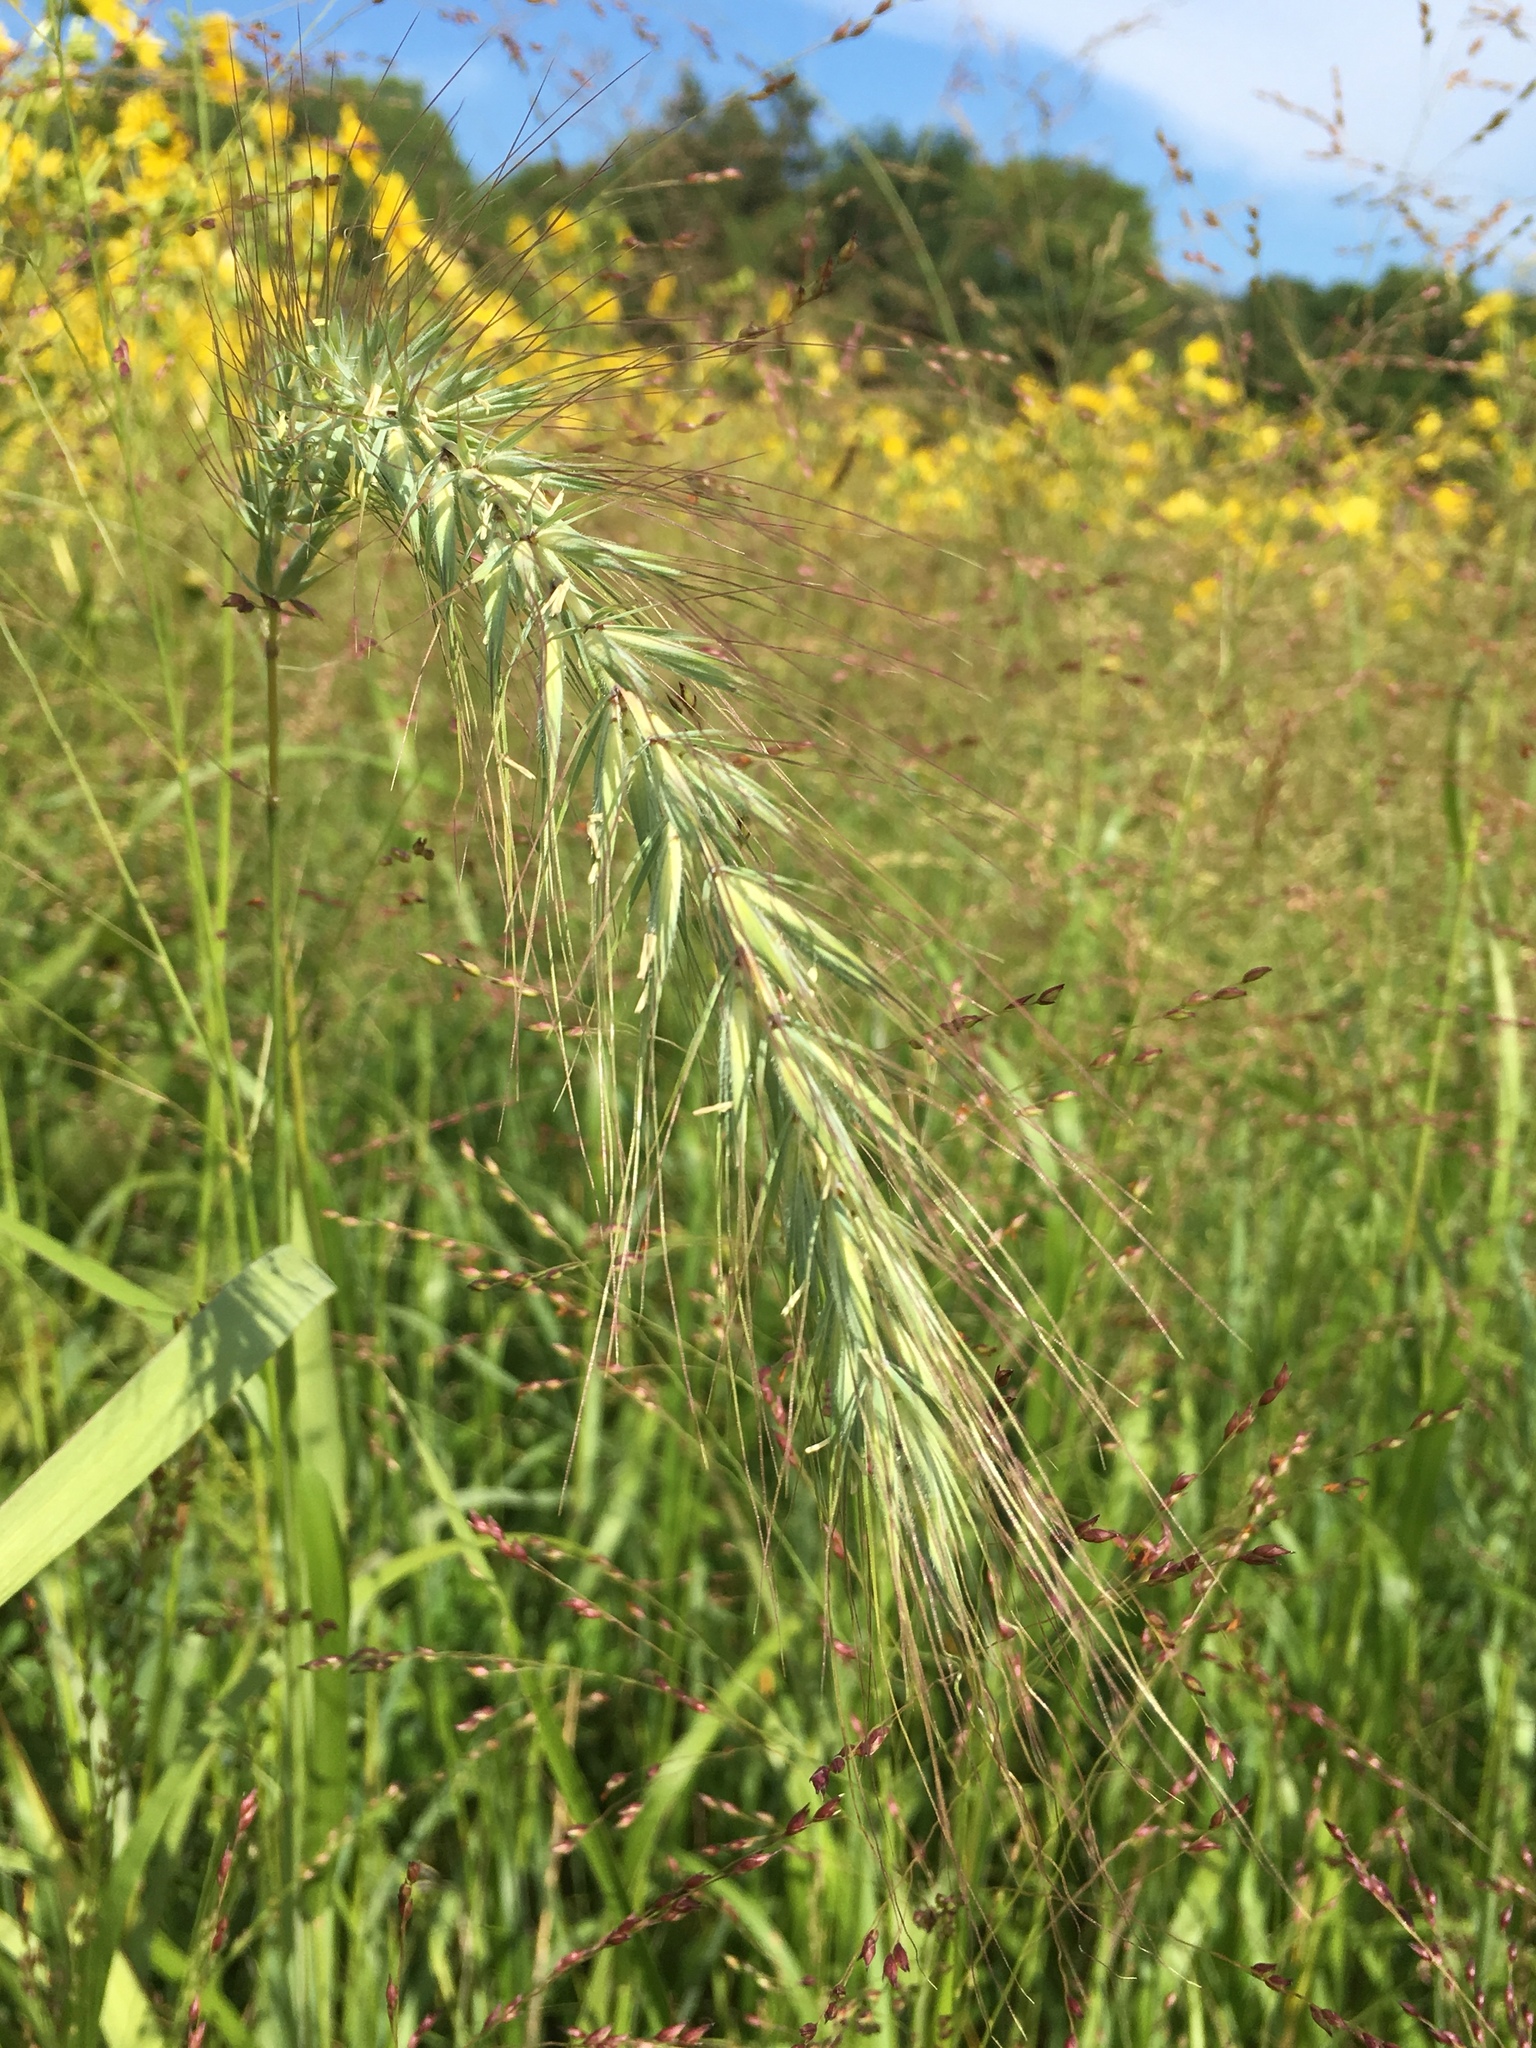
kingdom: Plantae
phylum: Tracheophyta
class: Liliopsida
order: Poales
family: Poaceae
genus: Elymus
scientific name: Elymus canadensis
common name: Canada wild rye
